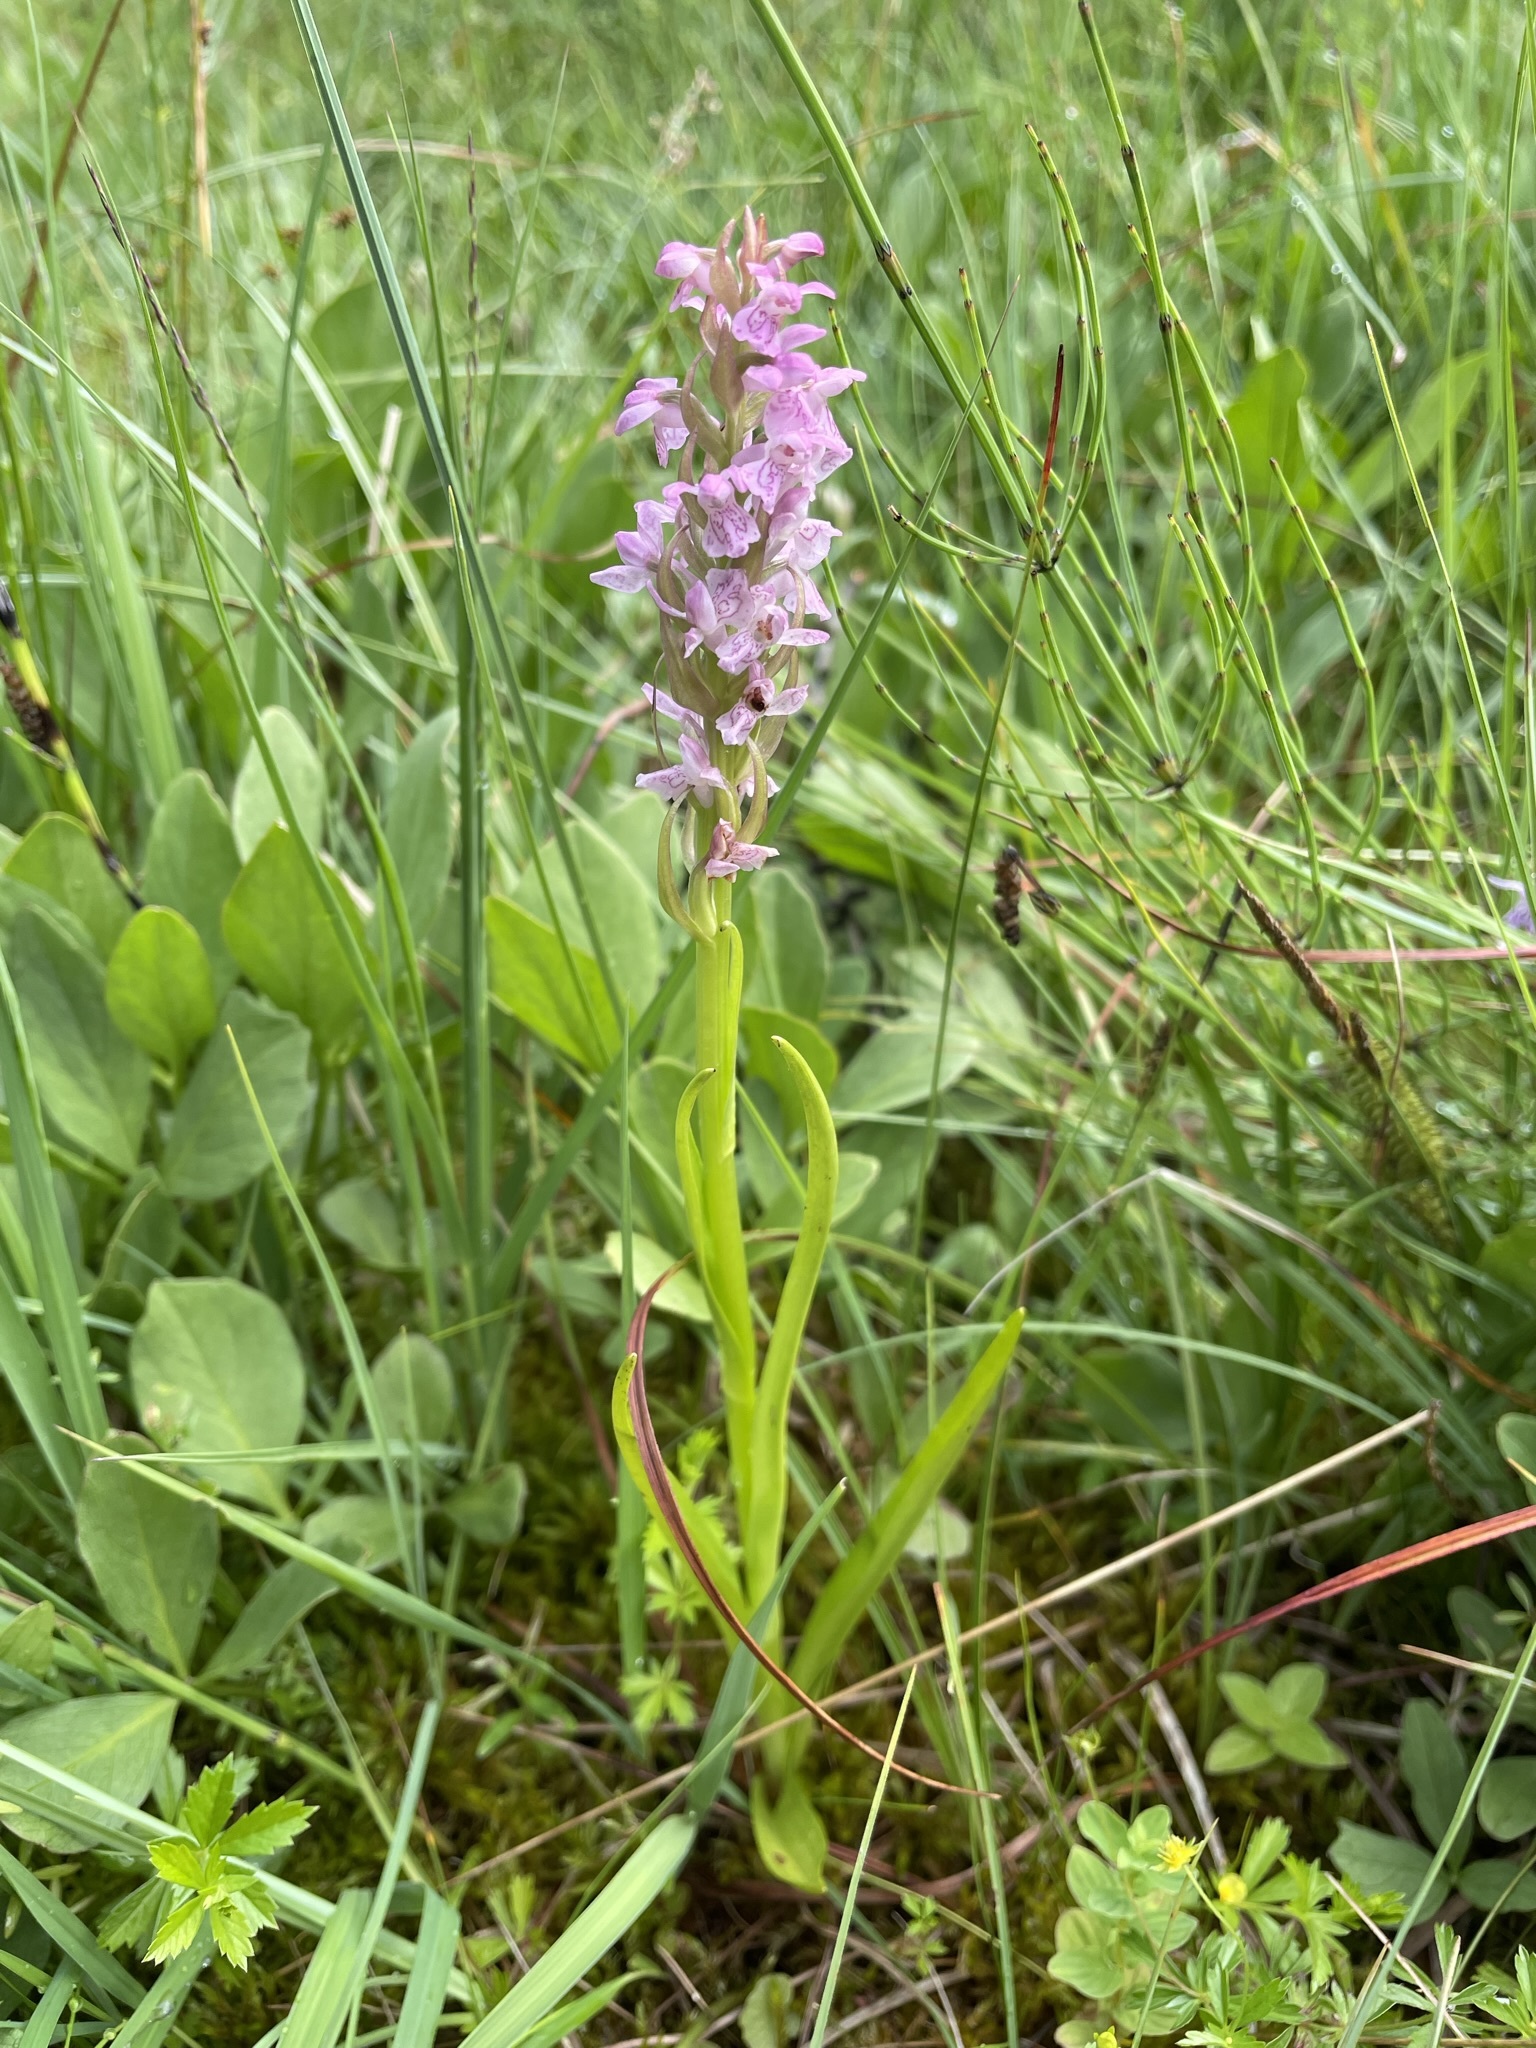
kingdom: Plantae
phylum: Tracheophyta
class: Liliopsida
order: Asparagales
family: Orchidaceae
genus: Dactylorhiza
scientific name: Dactylorhiza incarnata
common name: Early marsh-orchid
